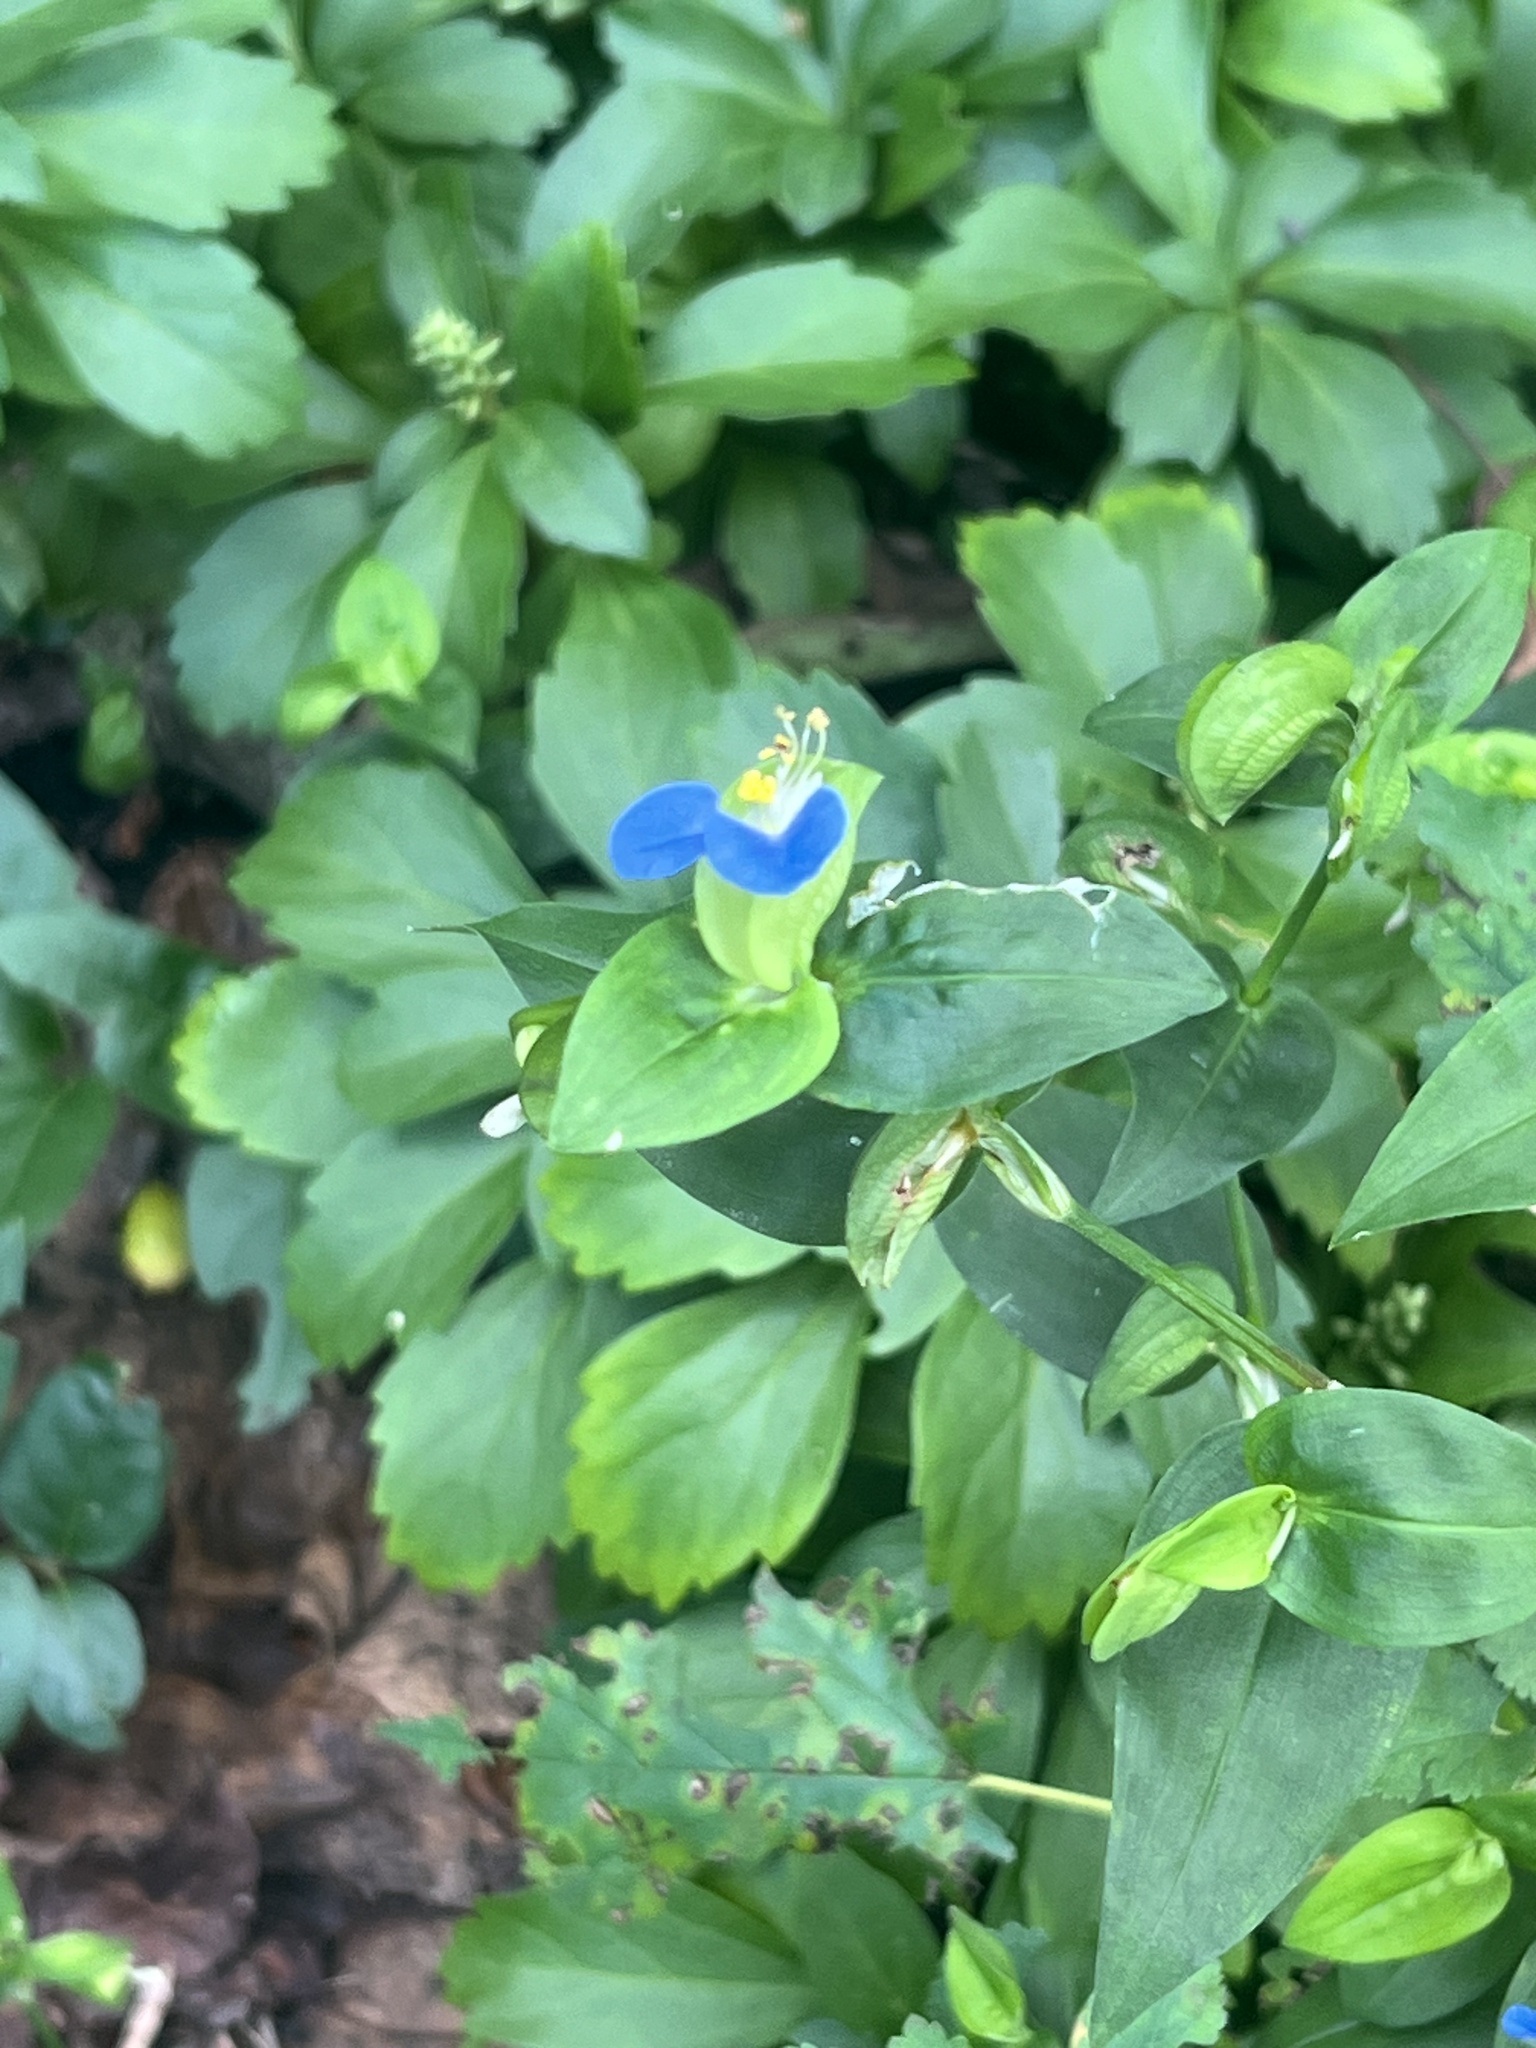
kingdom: Plantae
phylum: Tracheophyta
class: Liliopsida
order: Commelinales
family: Commelinaceae
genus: Commelina
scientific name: Commelina communis
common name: Asiatic dayflower
